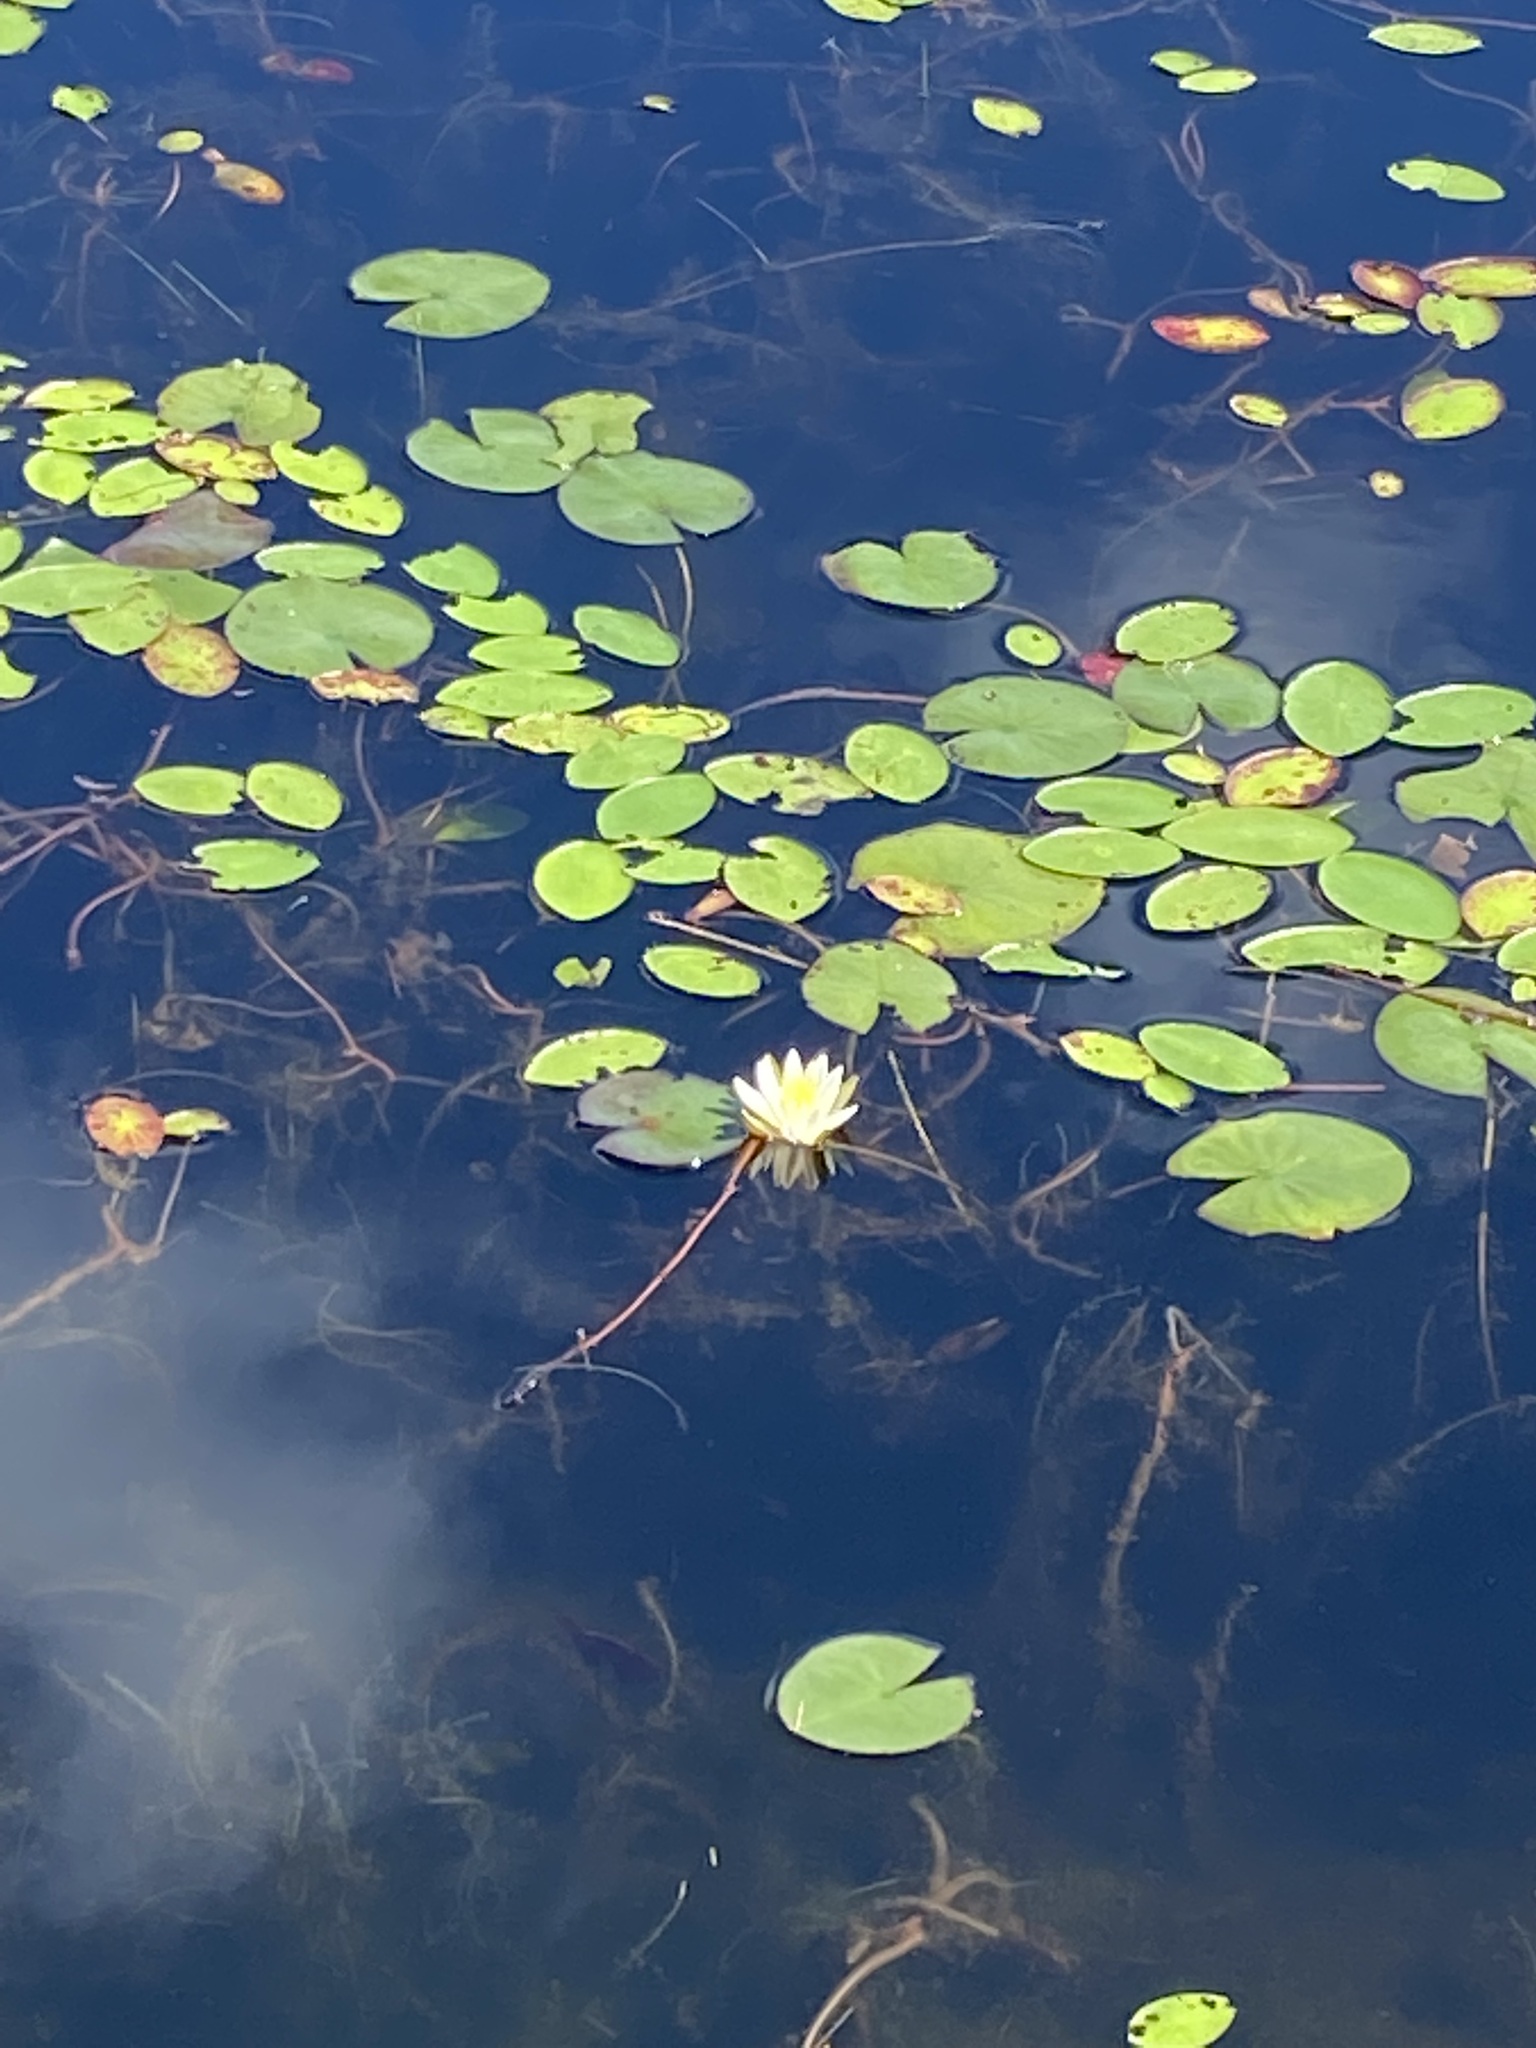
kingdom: Plantae
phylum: Tracheophyta
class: Magnoliopsida
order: Nymphaeales
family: Nymphaeaceae
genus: Nymphaea
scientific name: Nymphaea odorata
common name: Fragrant water-lily
